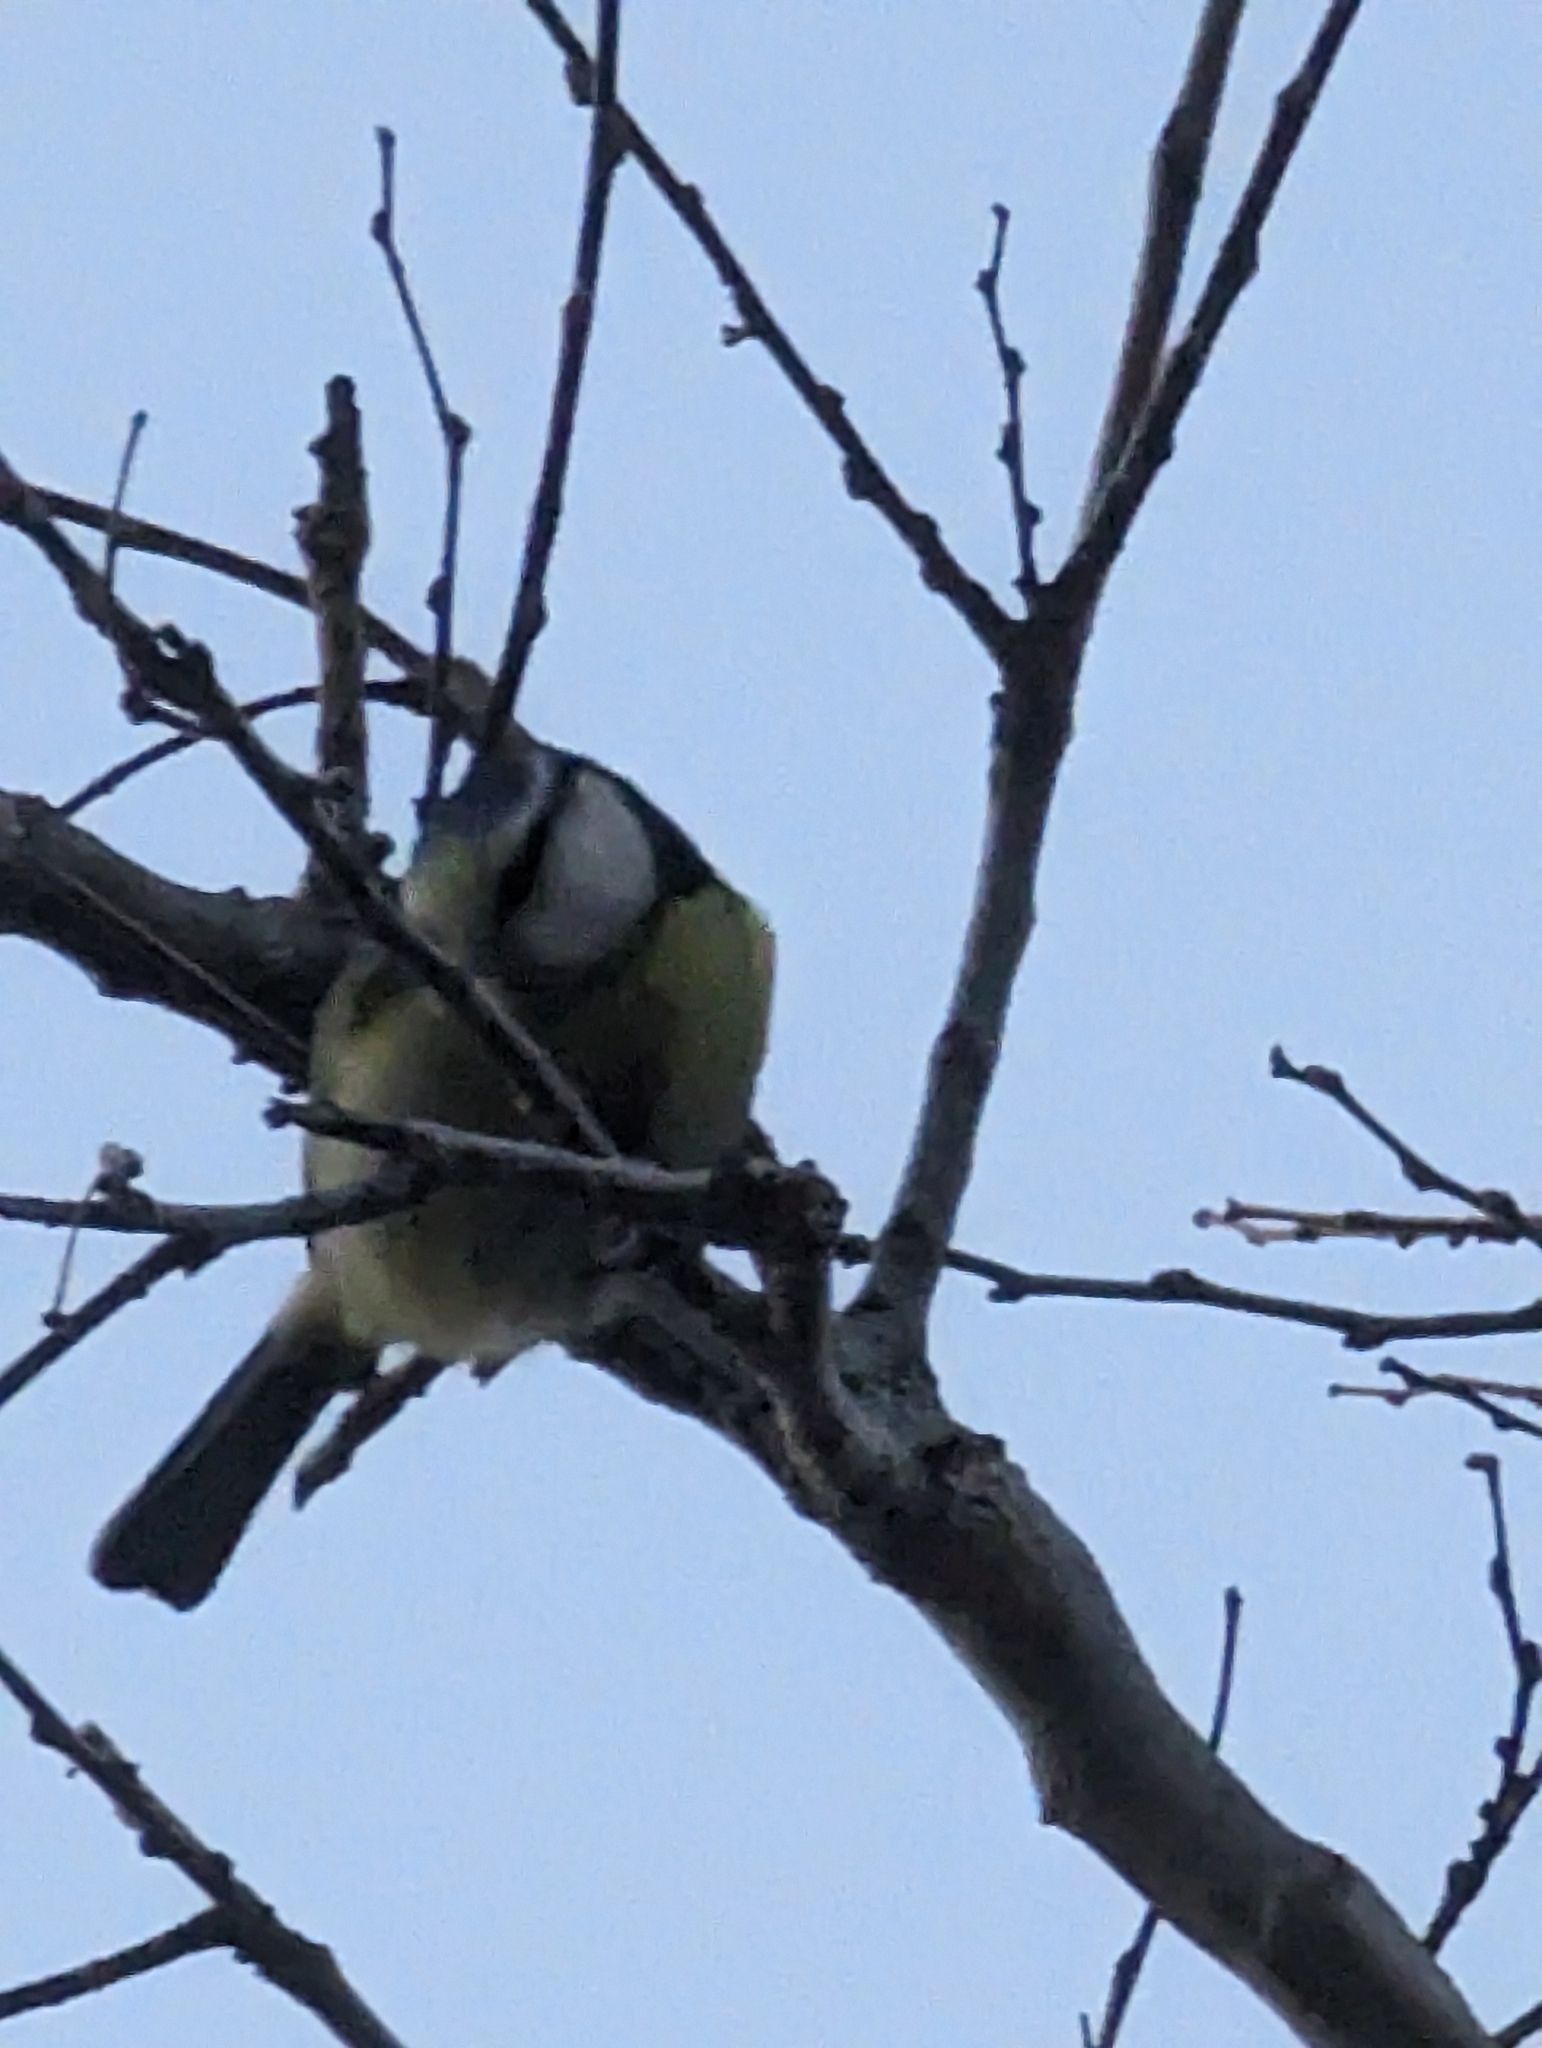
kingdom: Animalia
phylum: Chordata
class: Aves
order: Passeriformes
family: Paridae
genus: Cyanistes
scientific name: Cyanistes caeruleus
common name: Eurasian blue tit
